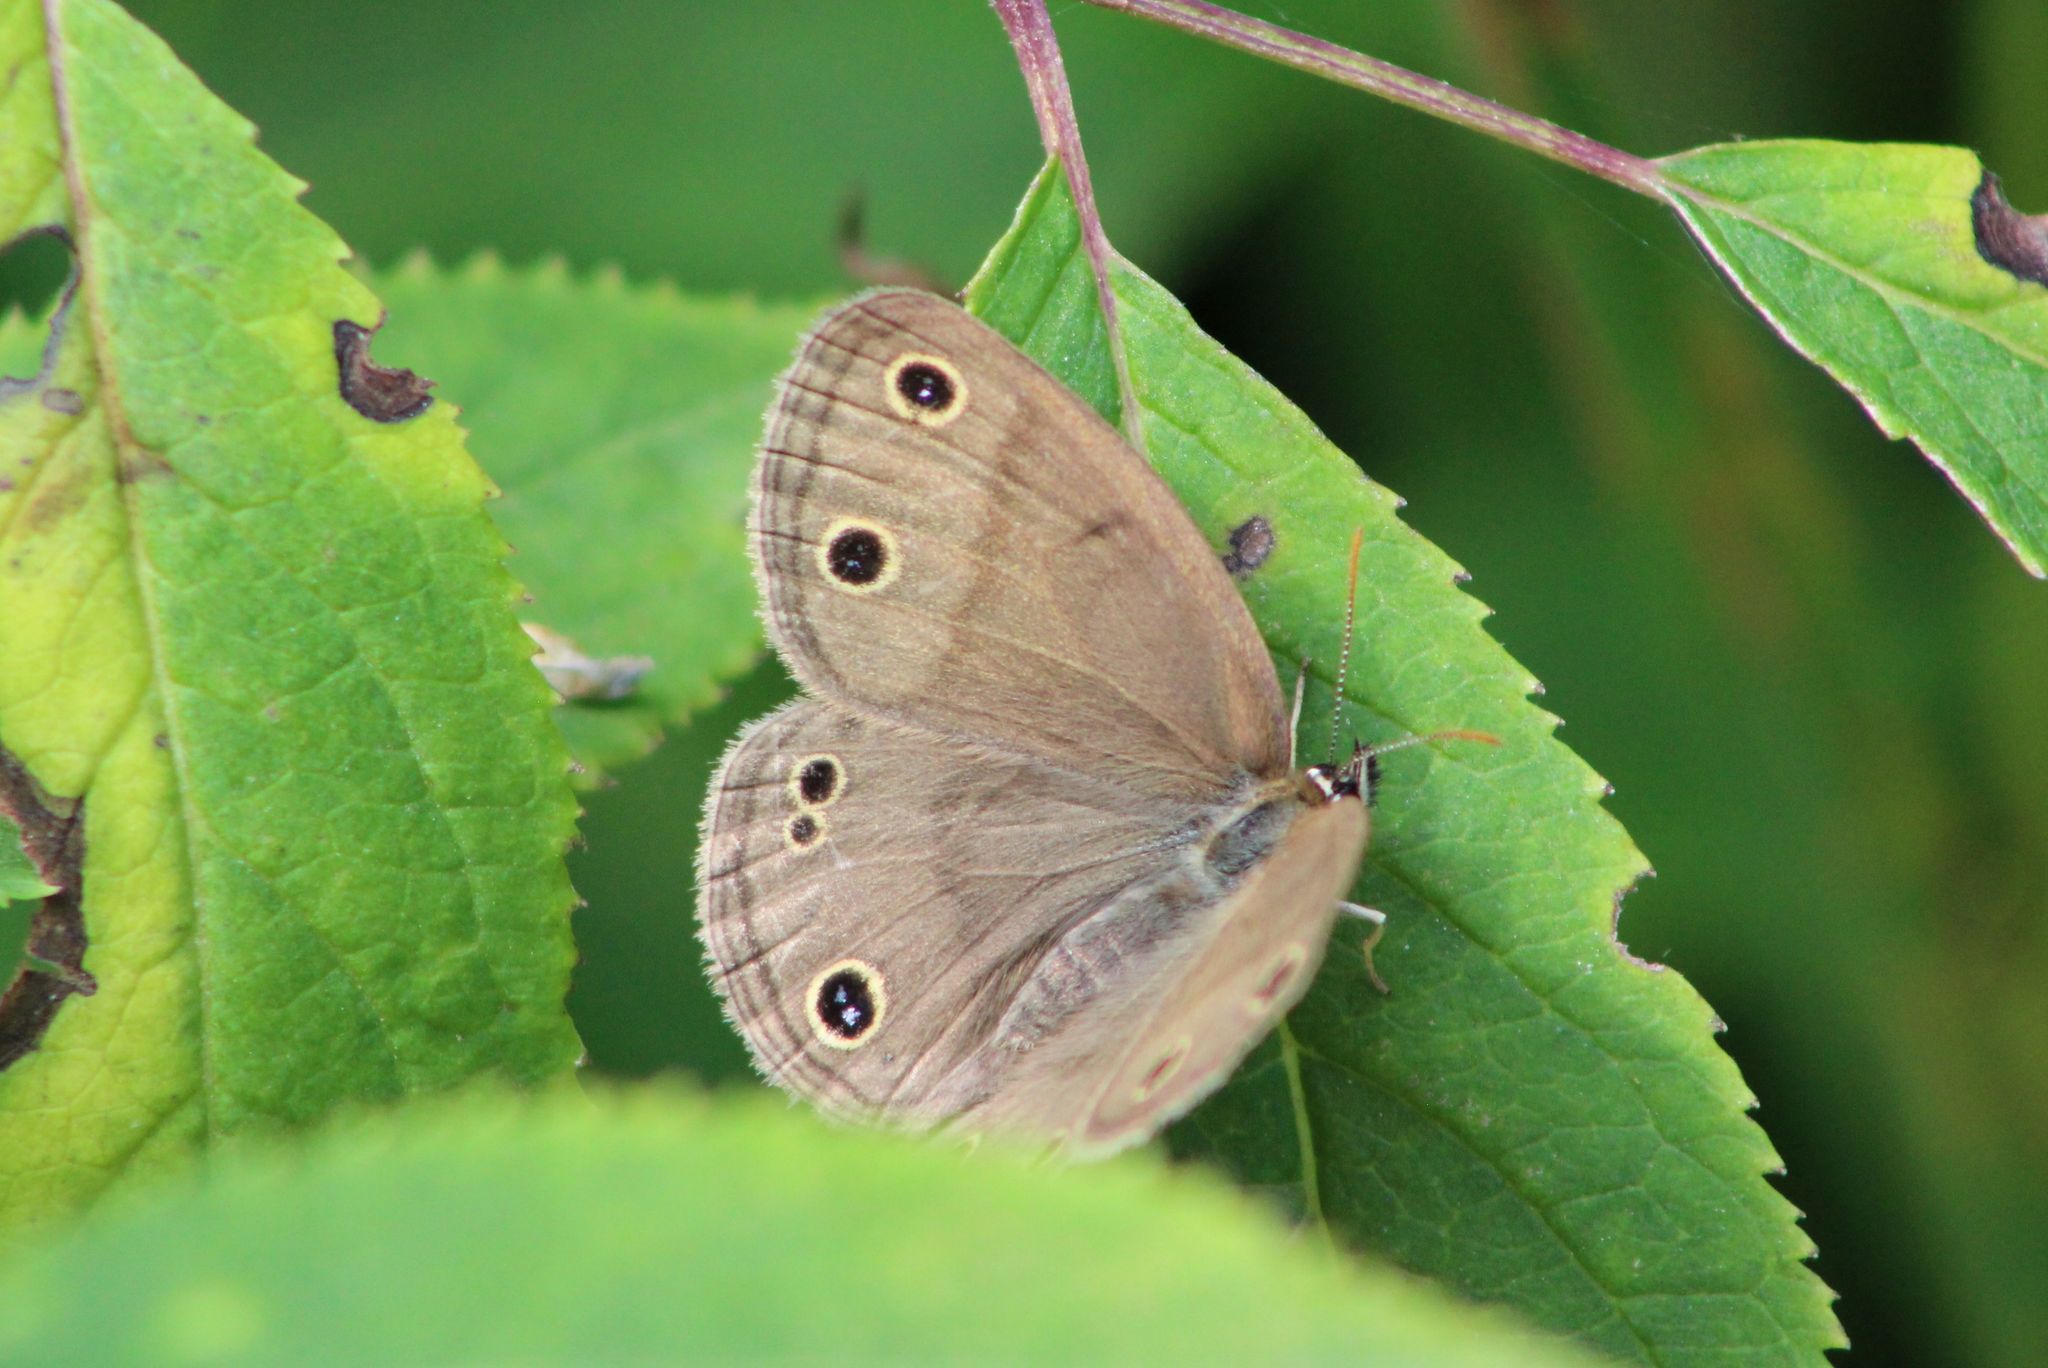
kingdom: Animalia
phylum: Arthropoda
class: Insecta
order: Lepidoptera
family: Nymphalidae
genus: Euptychia
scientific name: Euptychia cymela
